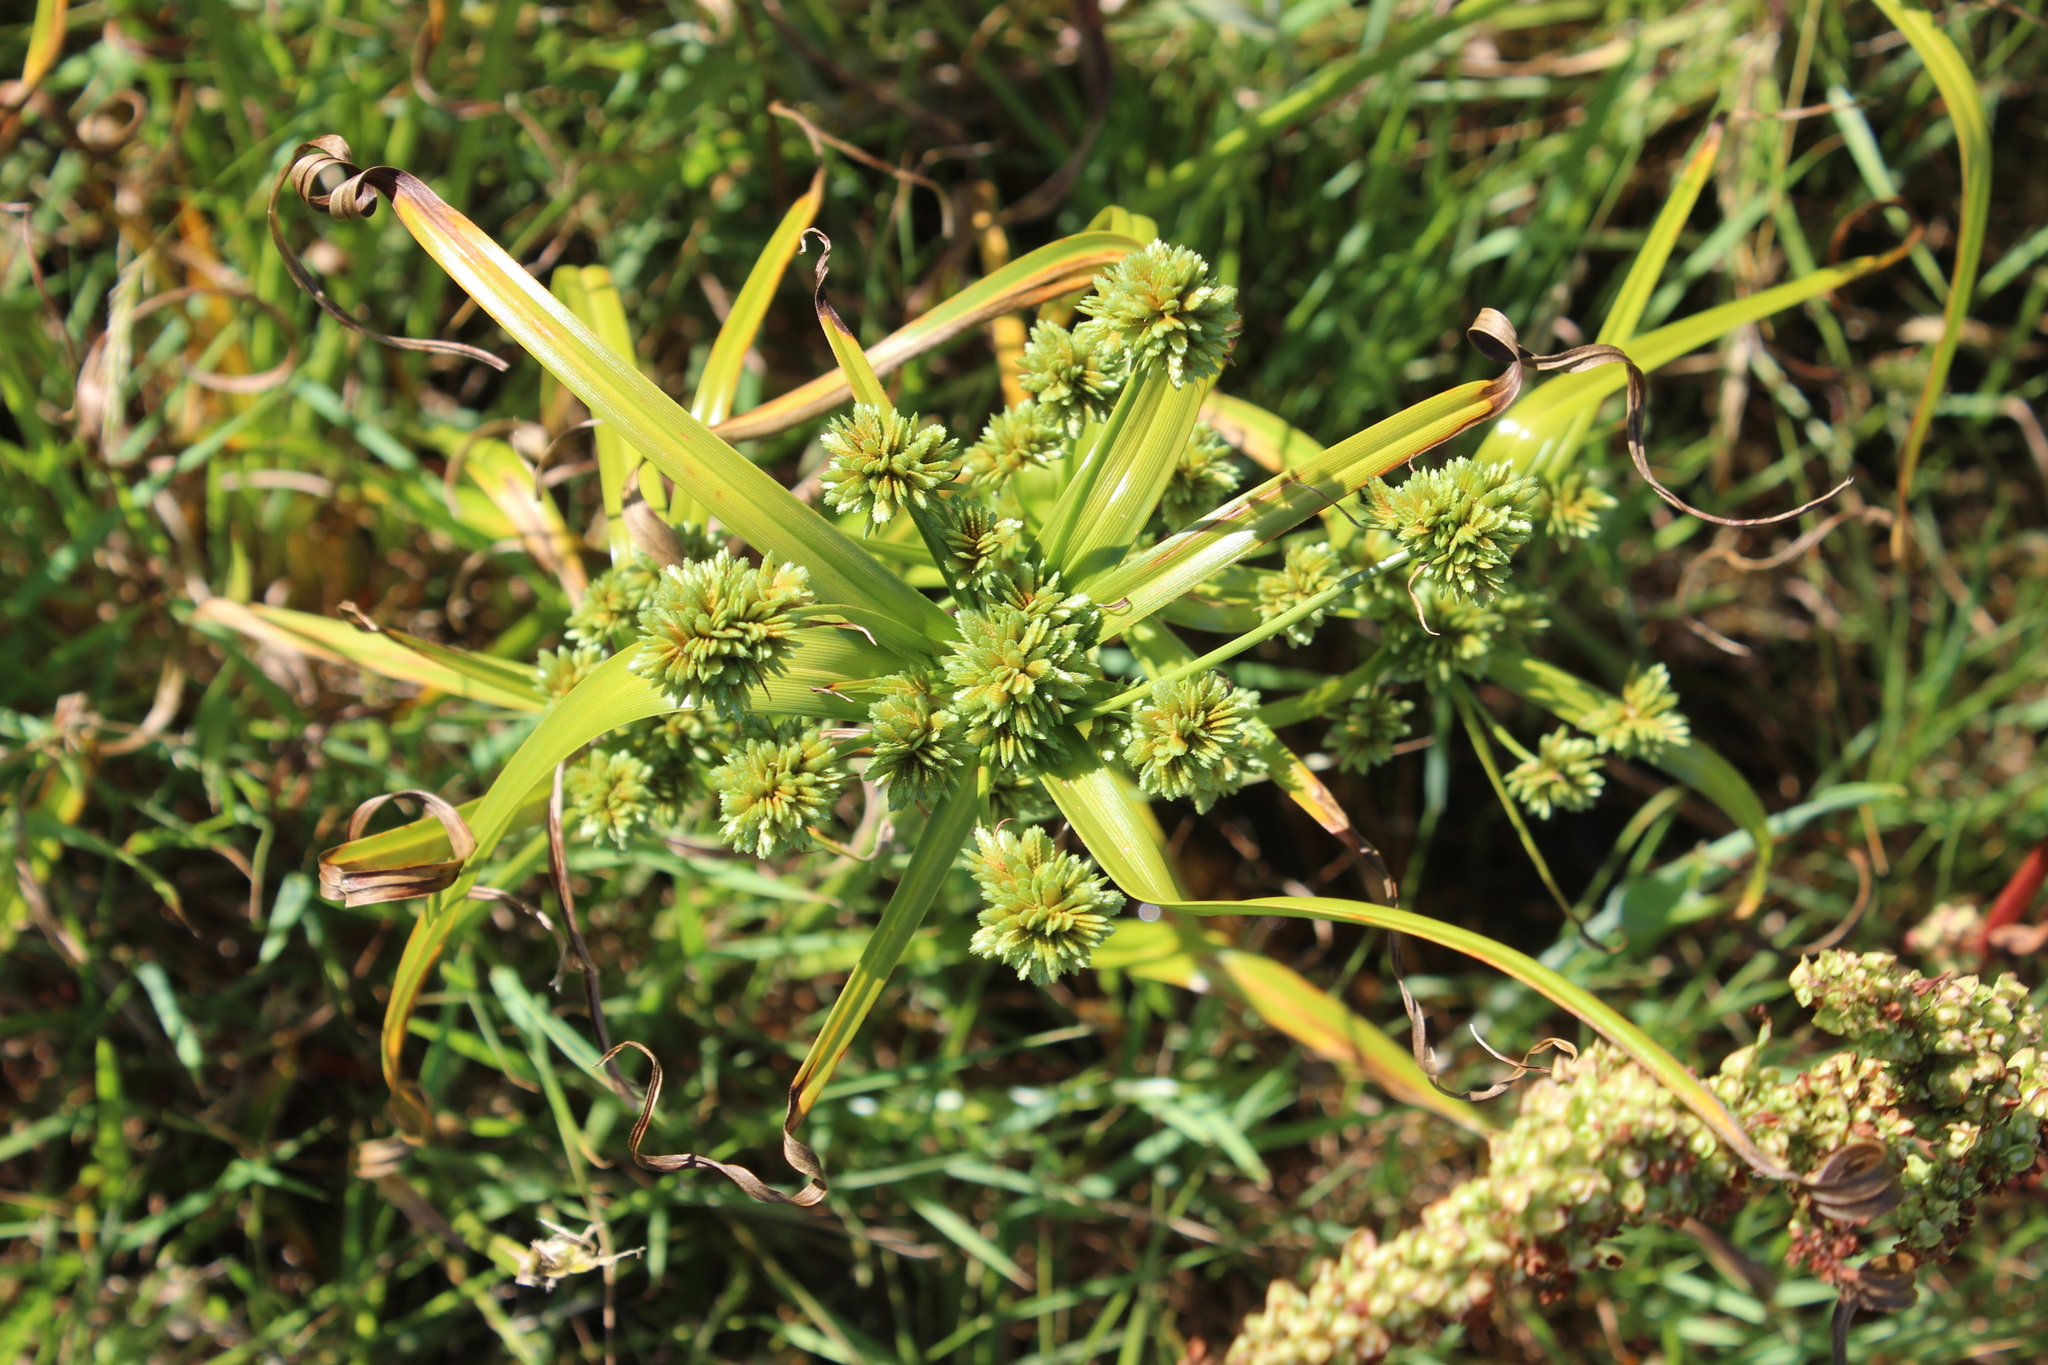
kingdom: Plantae
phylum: Tracheophyta
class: Liliopsida
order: Poales
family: Cyperaceae
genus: Cyperus
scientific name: Cyperus eragrostis
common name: Tall flatsedge
